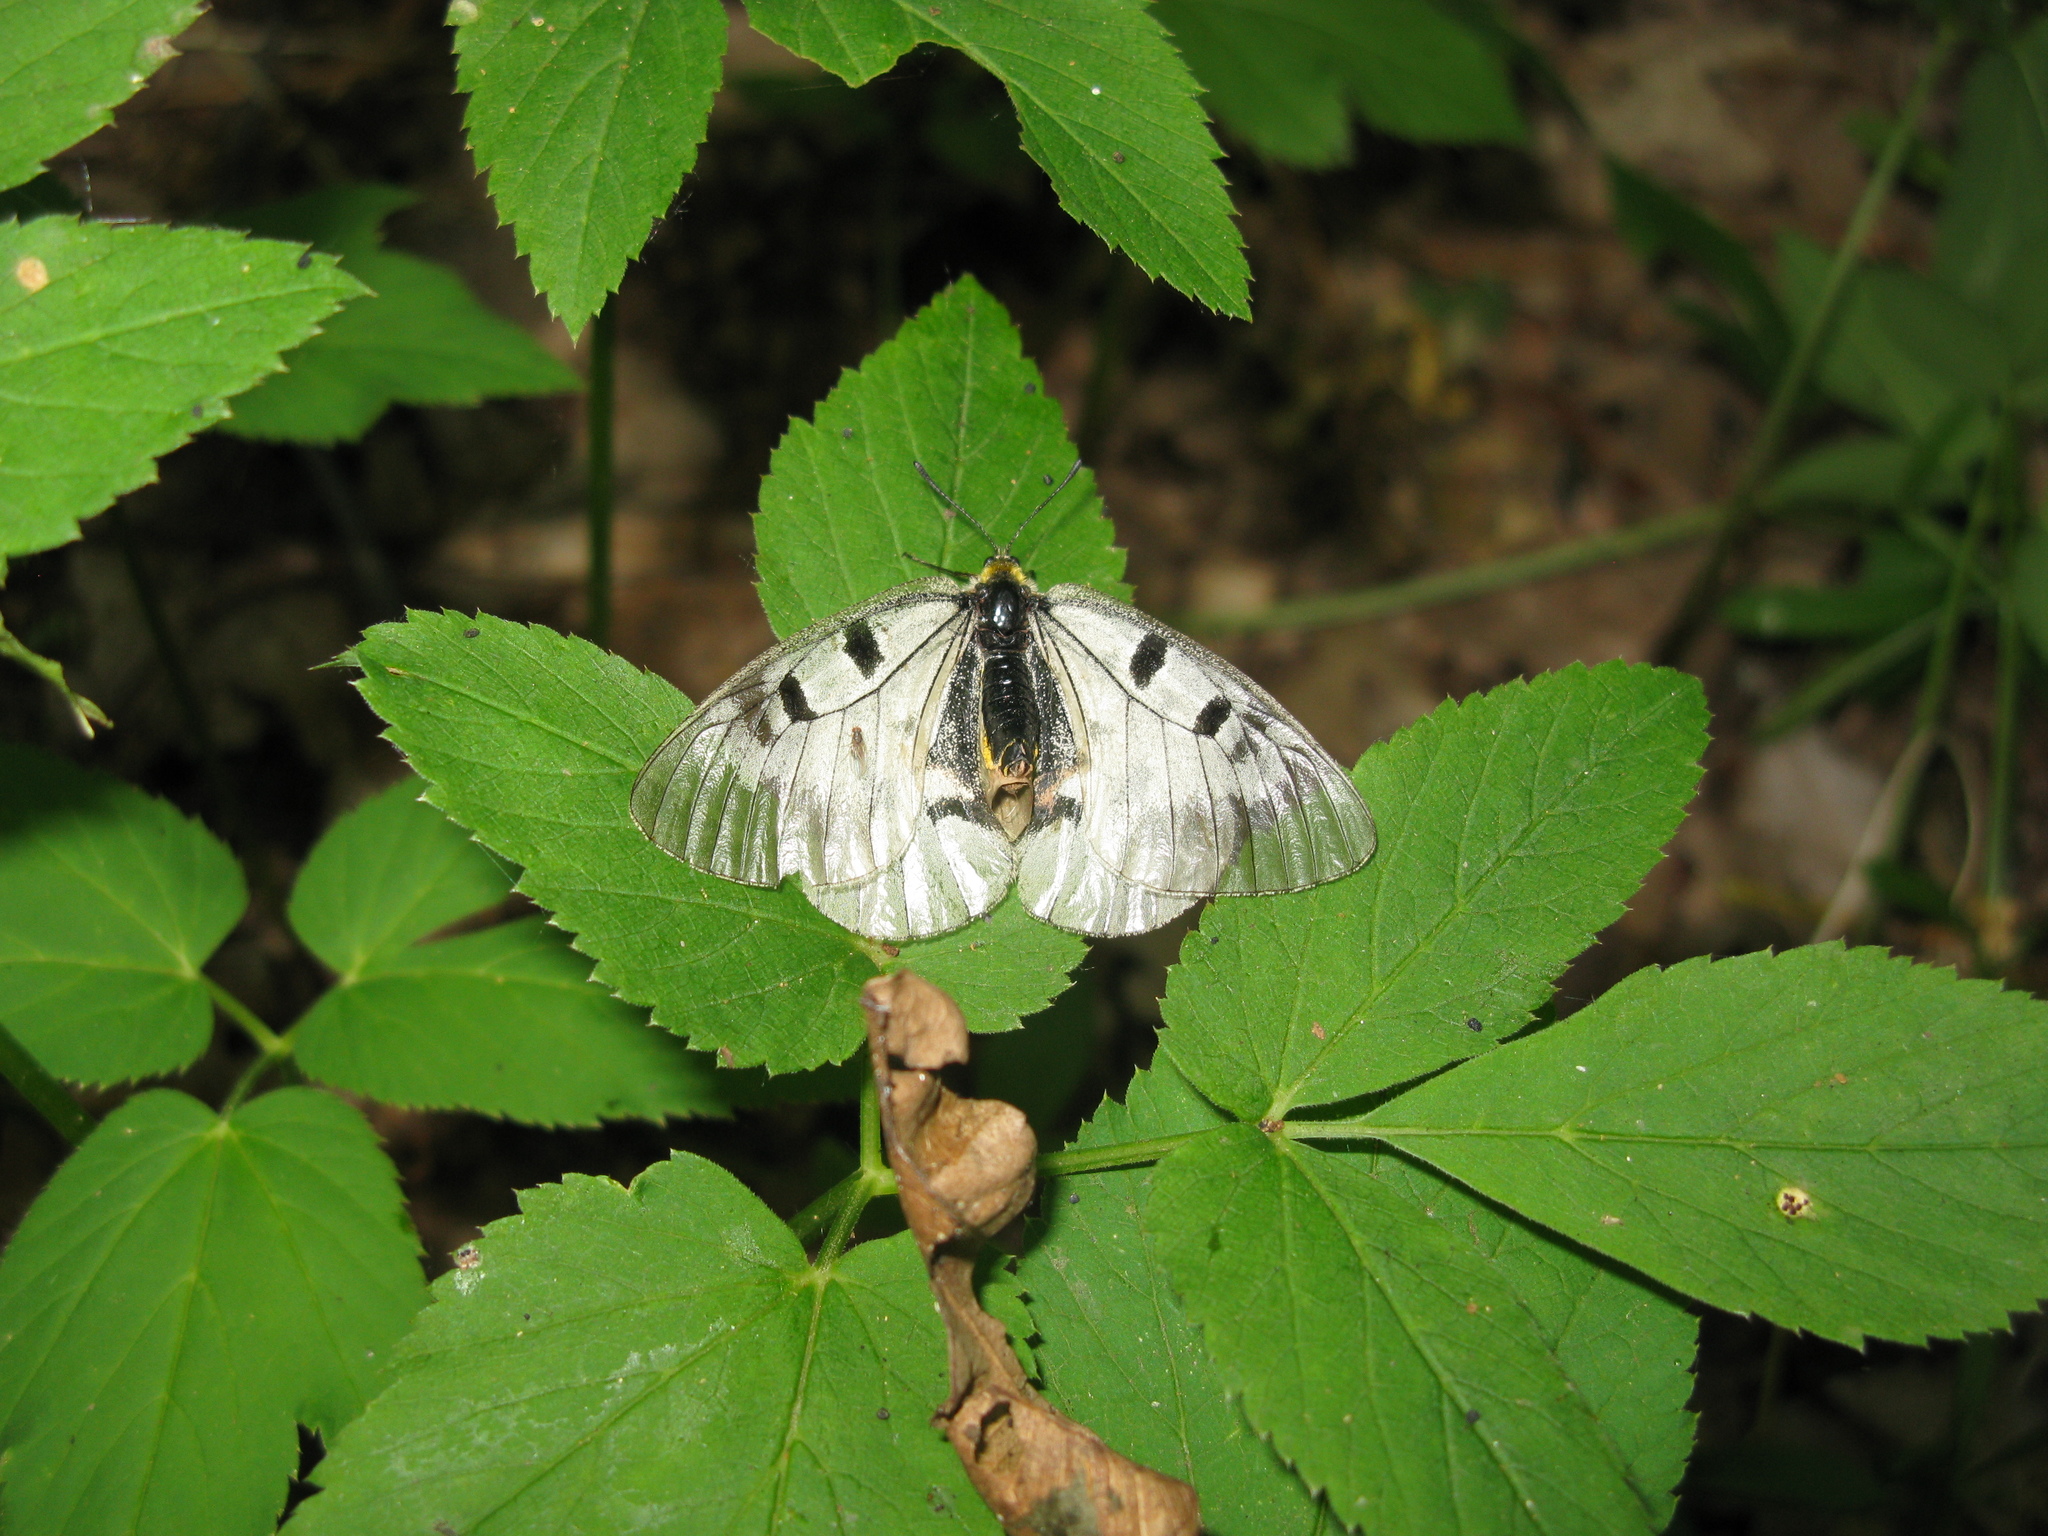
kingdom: Animalia
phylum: Arthropoda
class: Insecta
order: Lepidoptera
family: Papilionidae
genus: Parnassius
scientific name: Parnassius mnemosyne
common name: Clouded apollo
